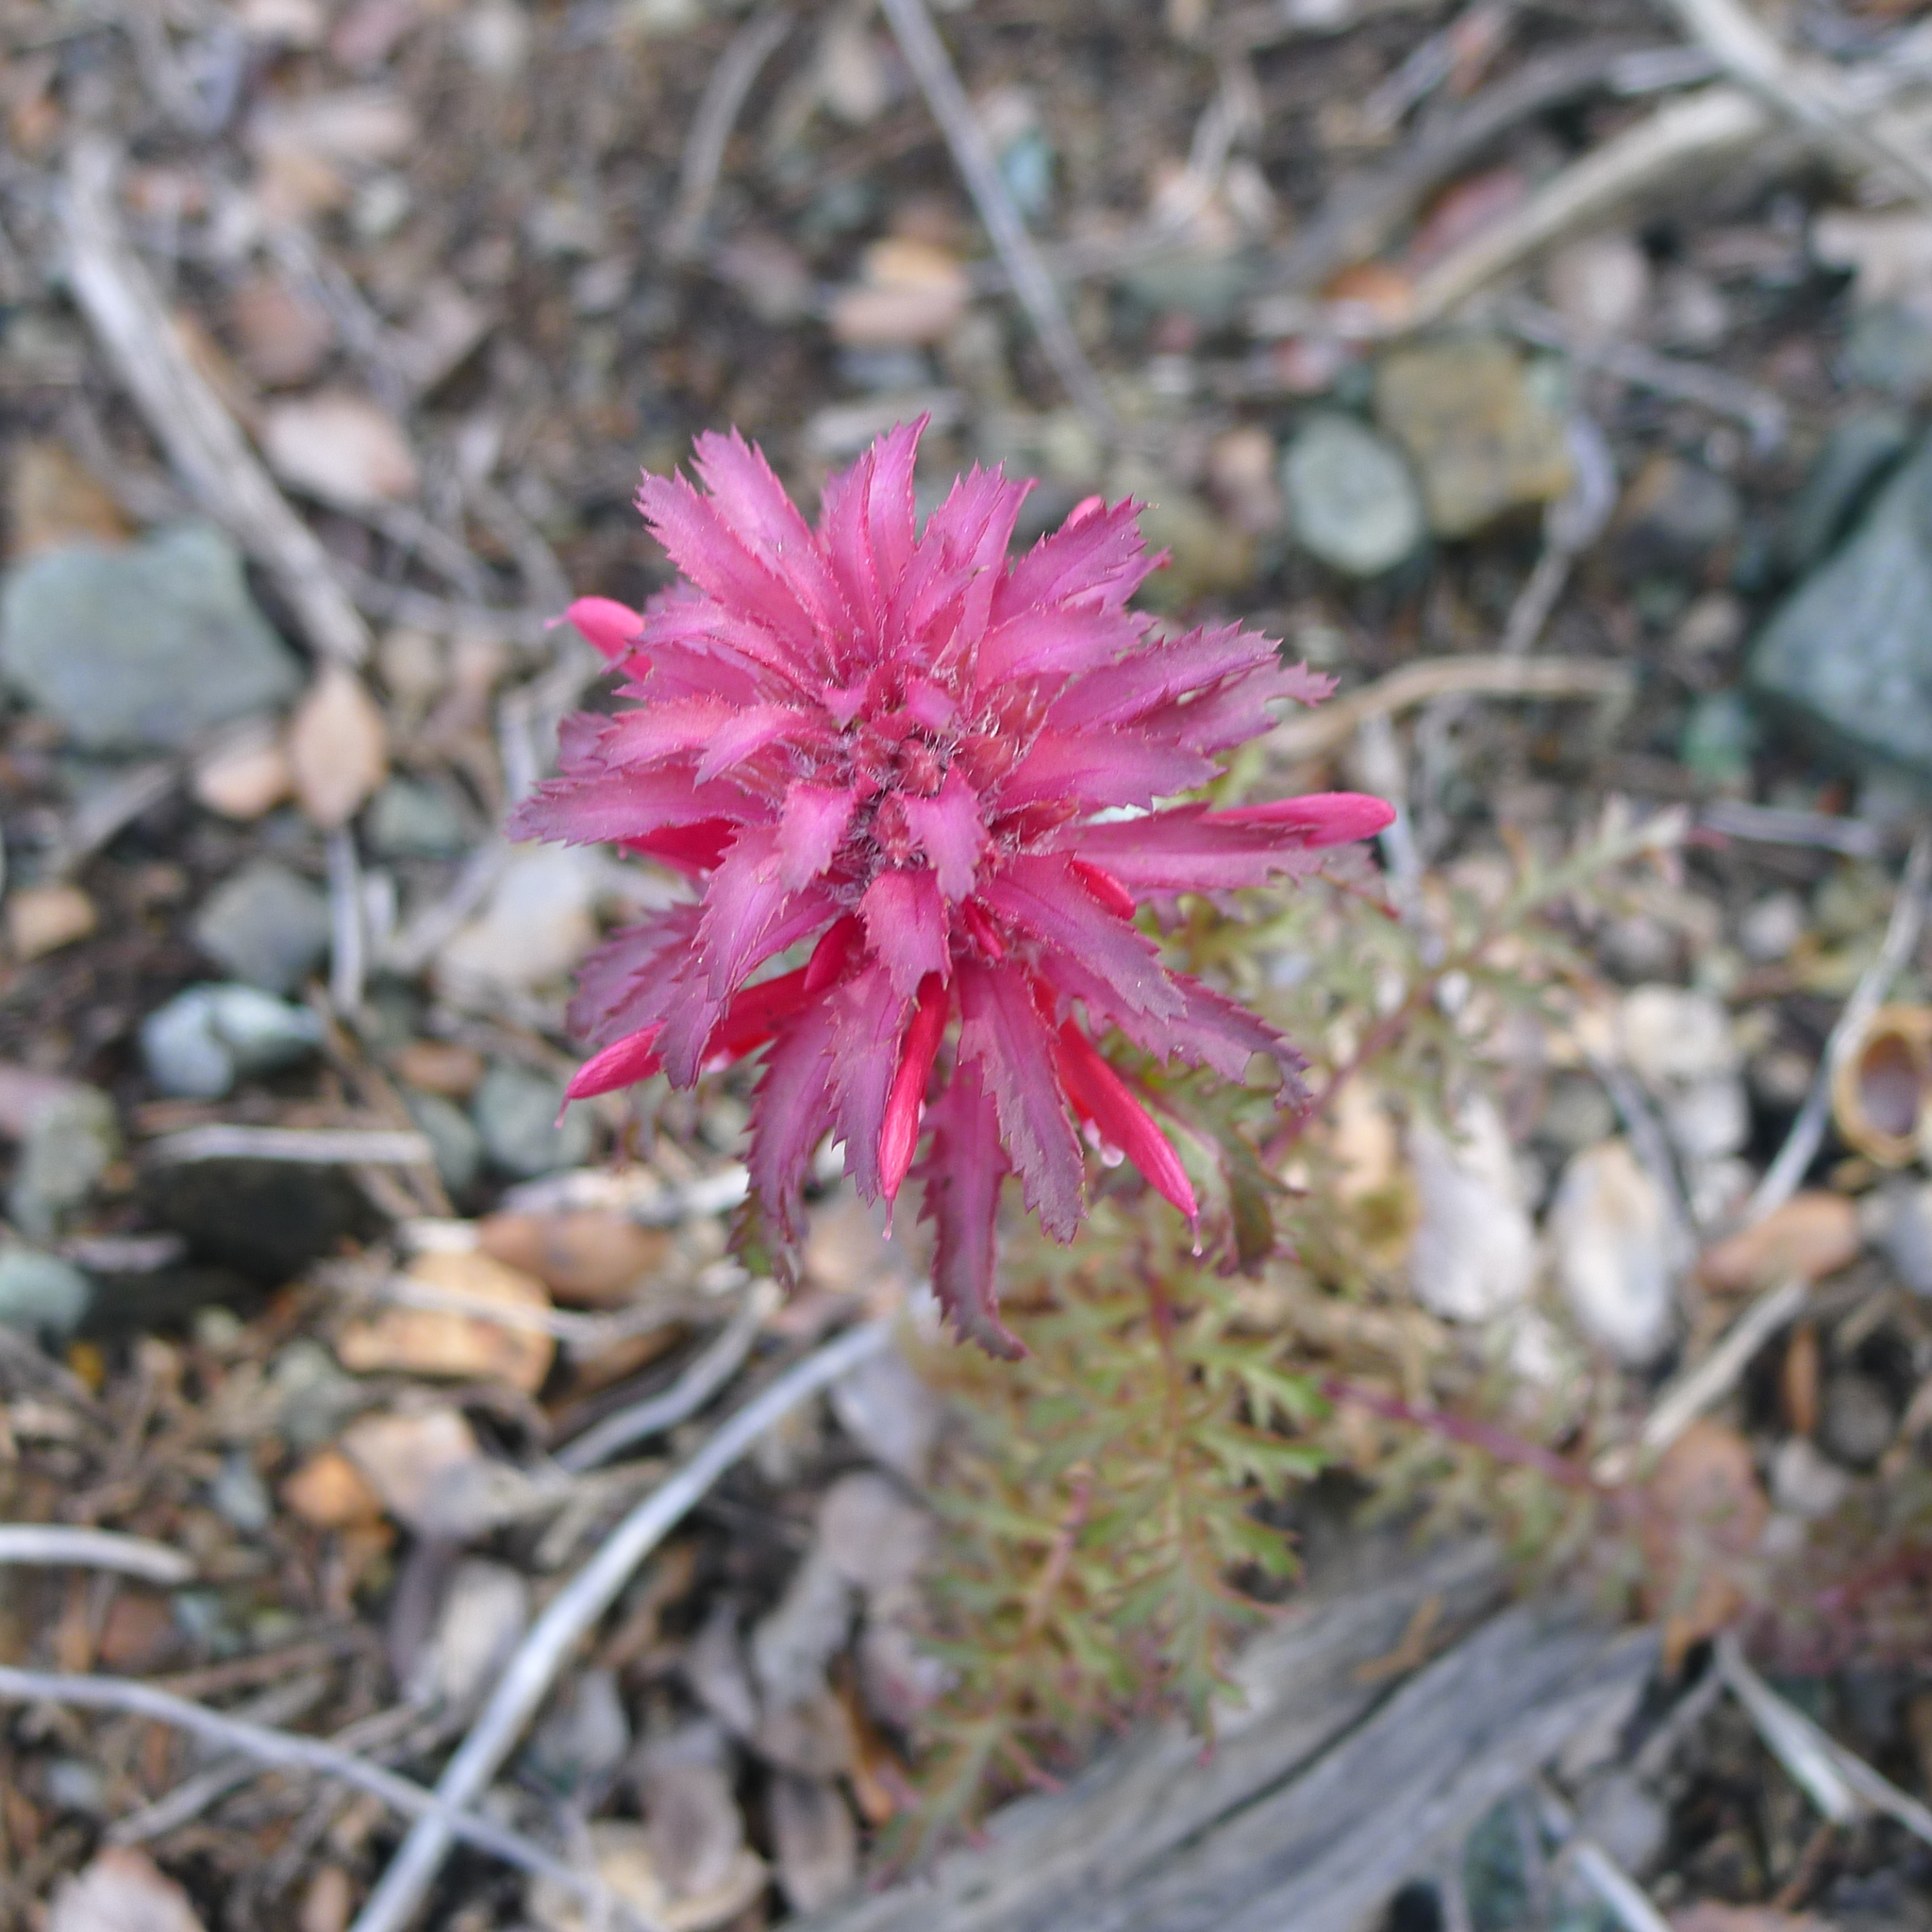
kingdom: Plantae
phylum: Tracheophyta
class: Magnoliopsida
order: Lamiales
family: Orobanchaceae
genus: Pedicularis
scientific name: Pedicularis densiflora
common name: Indian warrior
